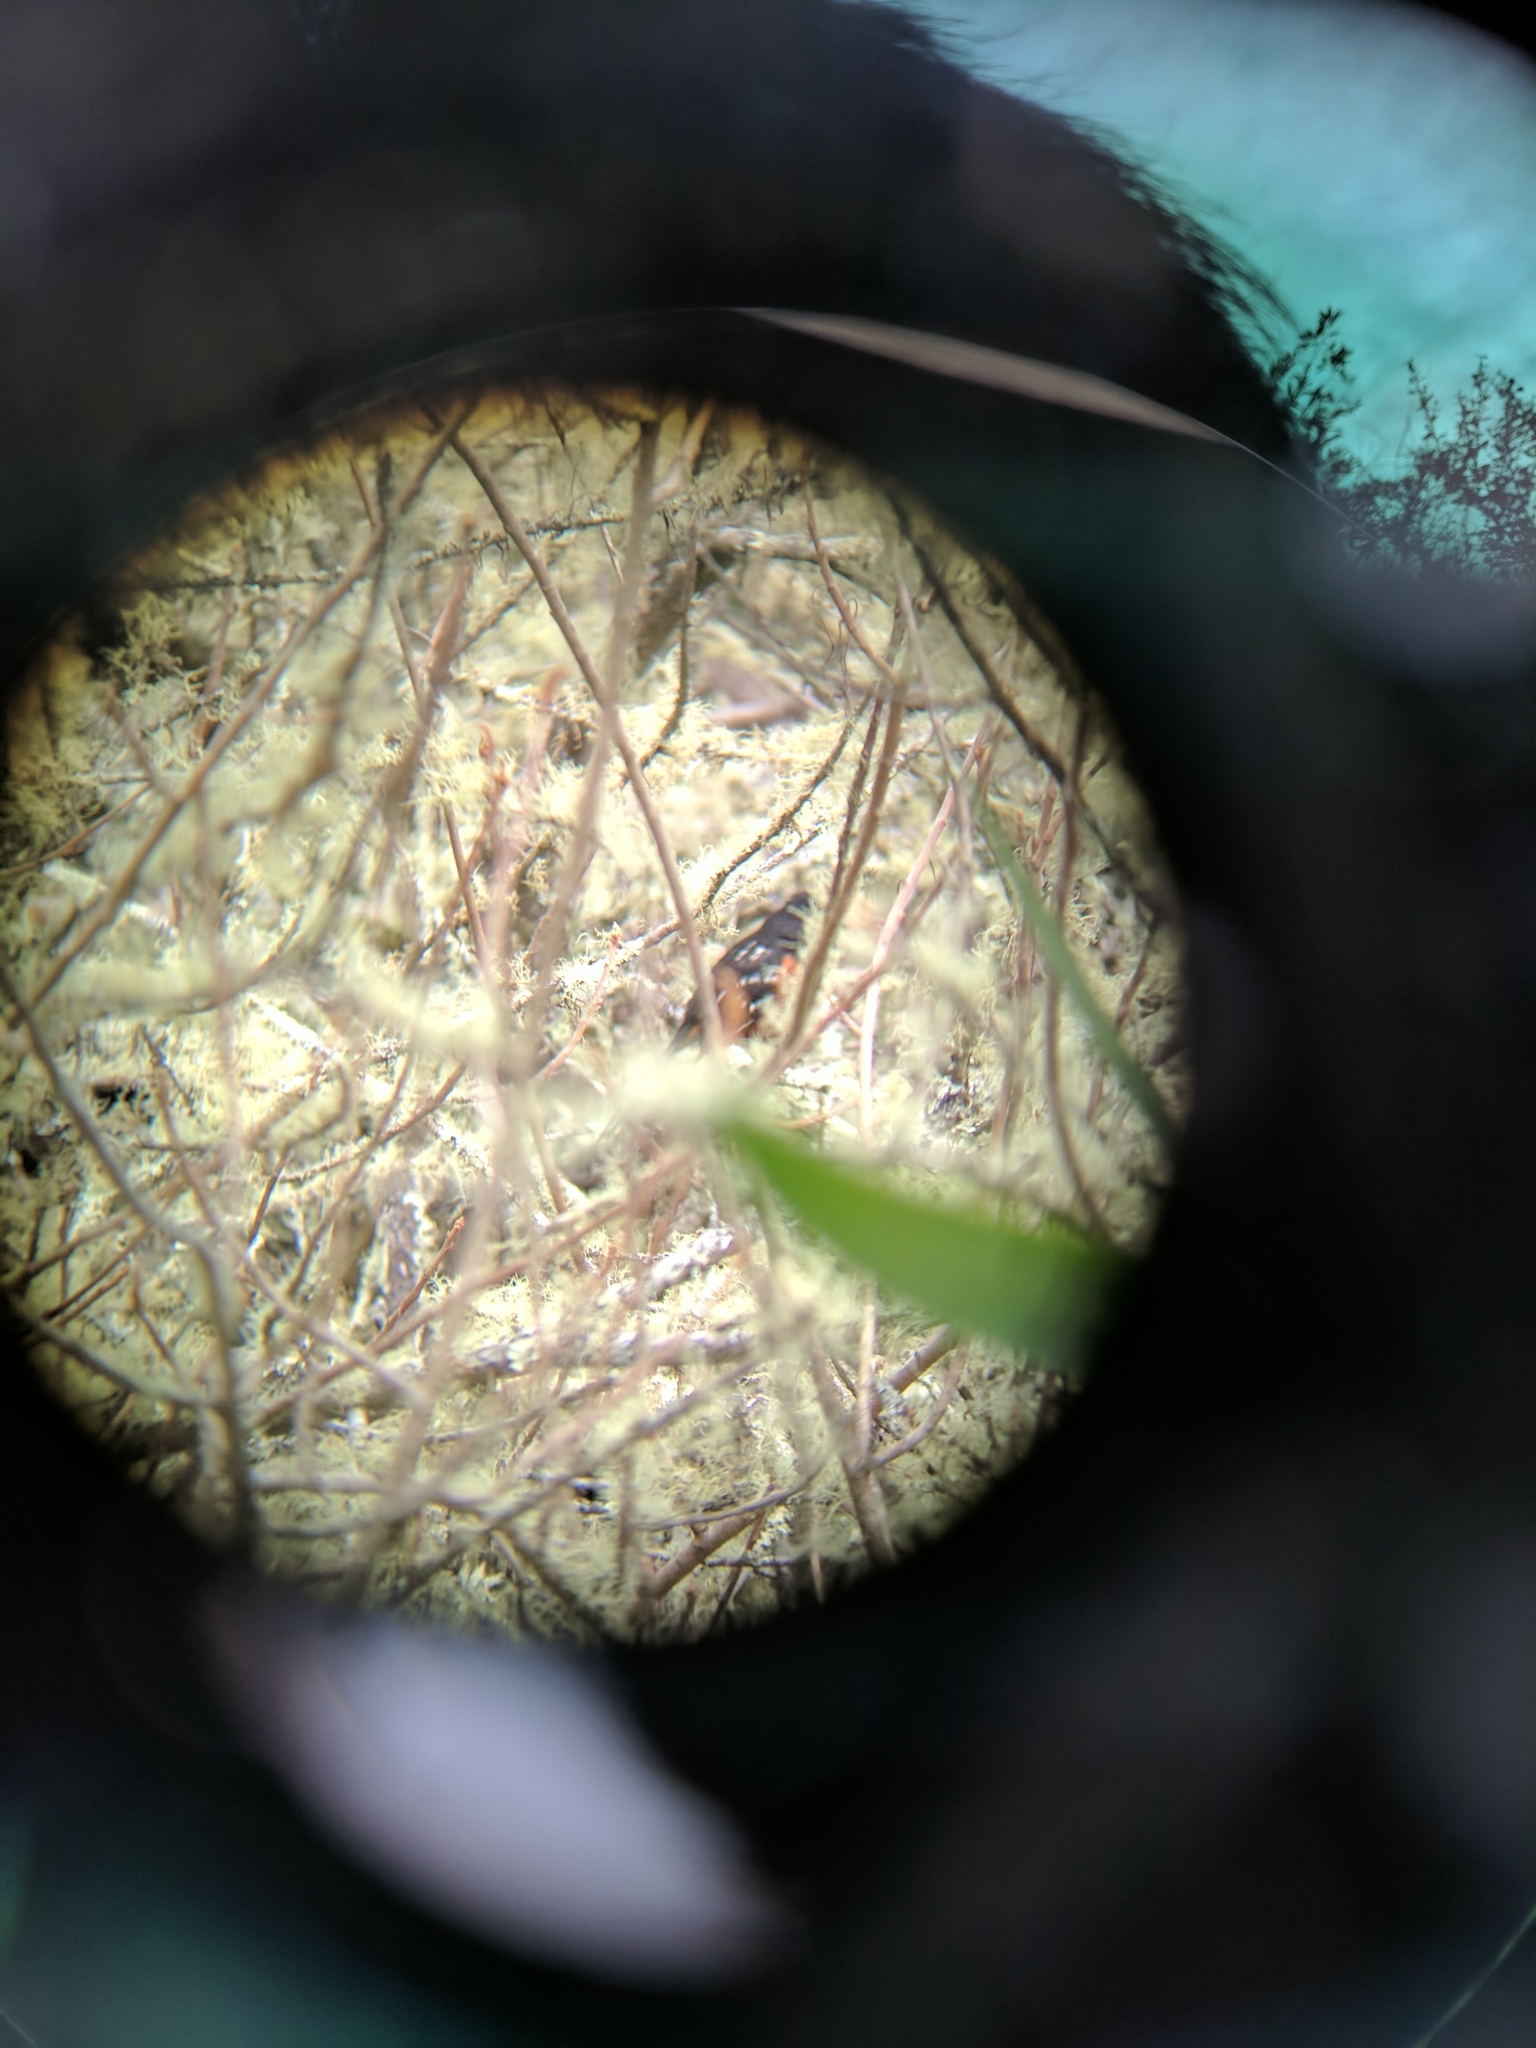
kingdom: Animalia
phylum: Chordata
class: Aves
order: Passeriformes
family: Passerellidae
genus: Pipilo
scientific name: Pipilo maculatus
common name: Spotted towhee
